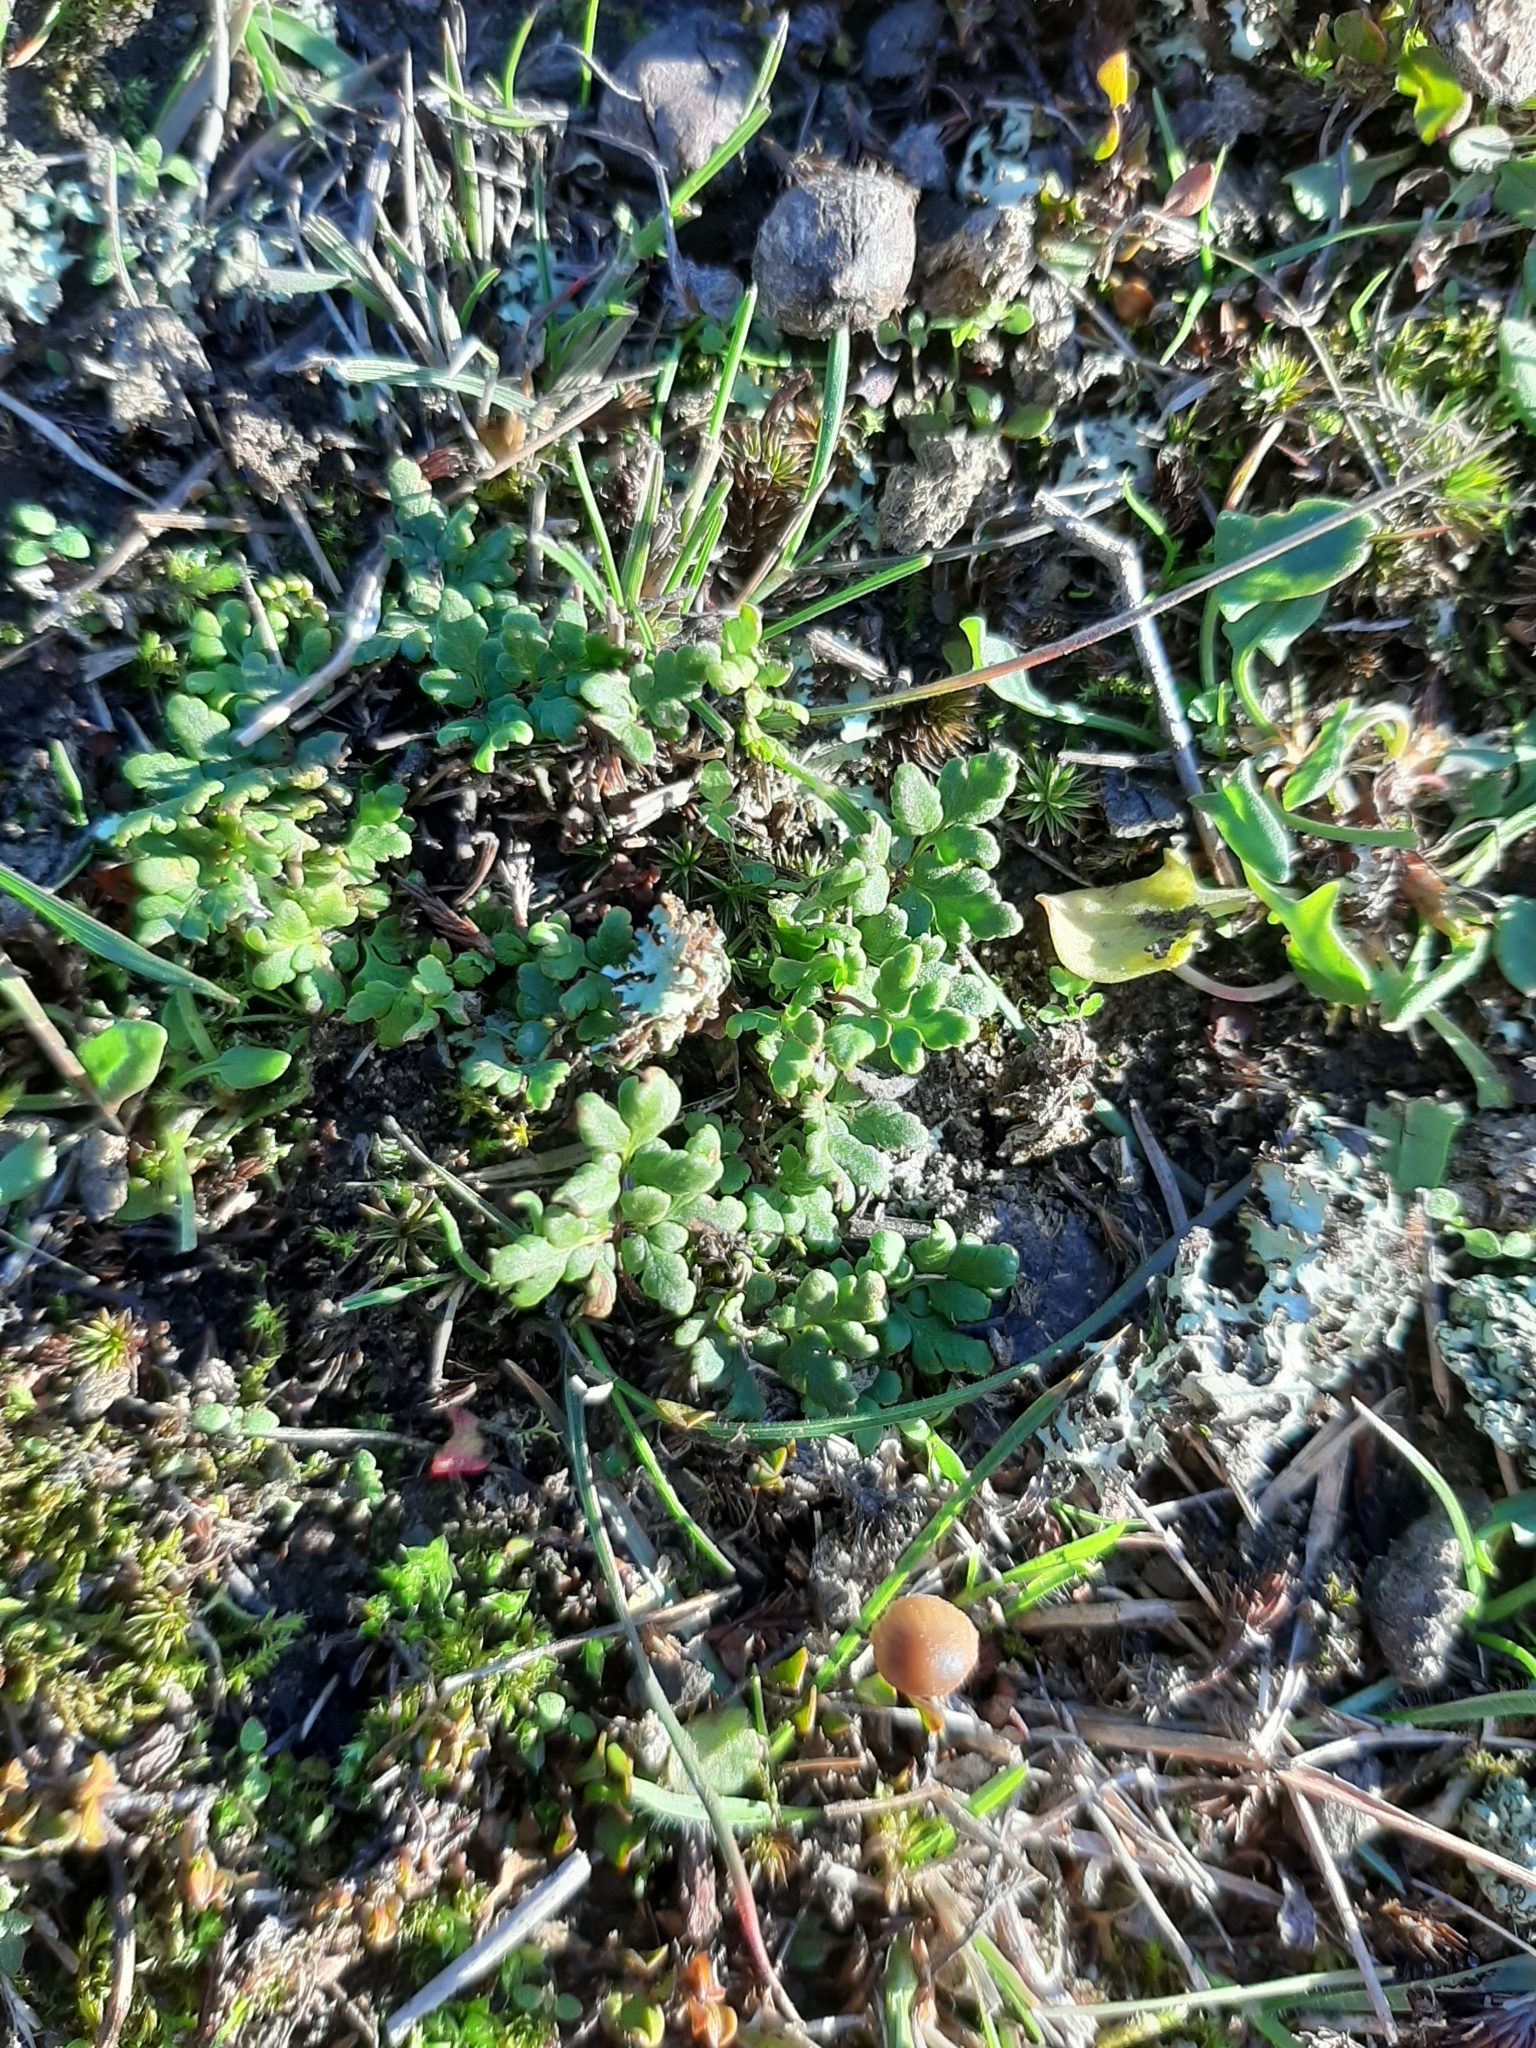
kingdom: Plantae
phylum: Tracheophyta
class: Polypodiopsida
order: Polypodiales
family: Pteridaceae
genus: Cheilanthes
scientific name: Cheilanthes sieberi
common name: Mulga fern
